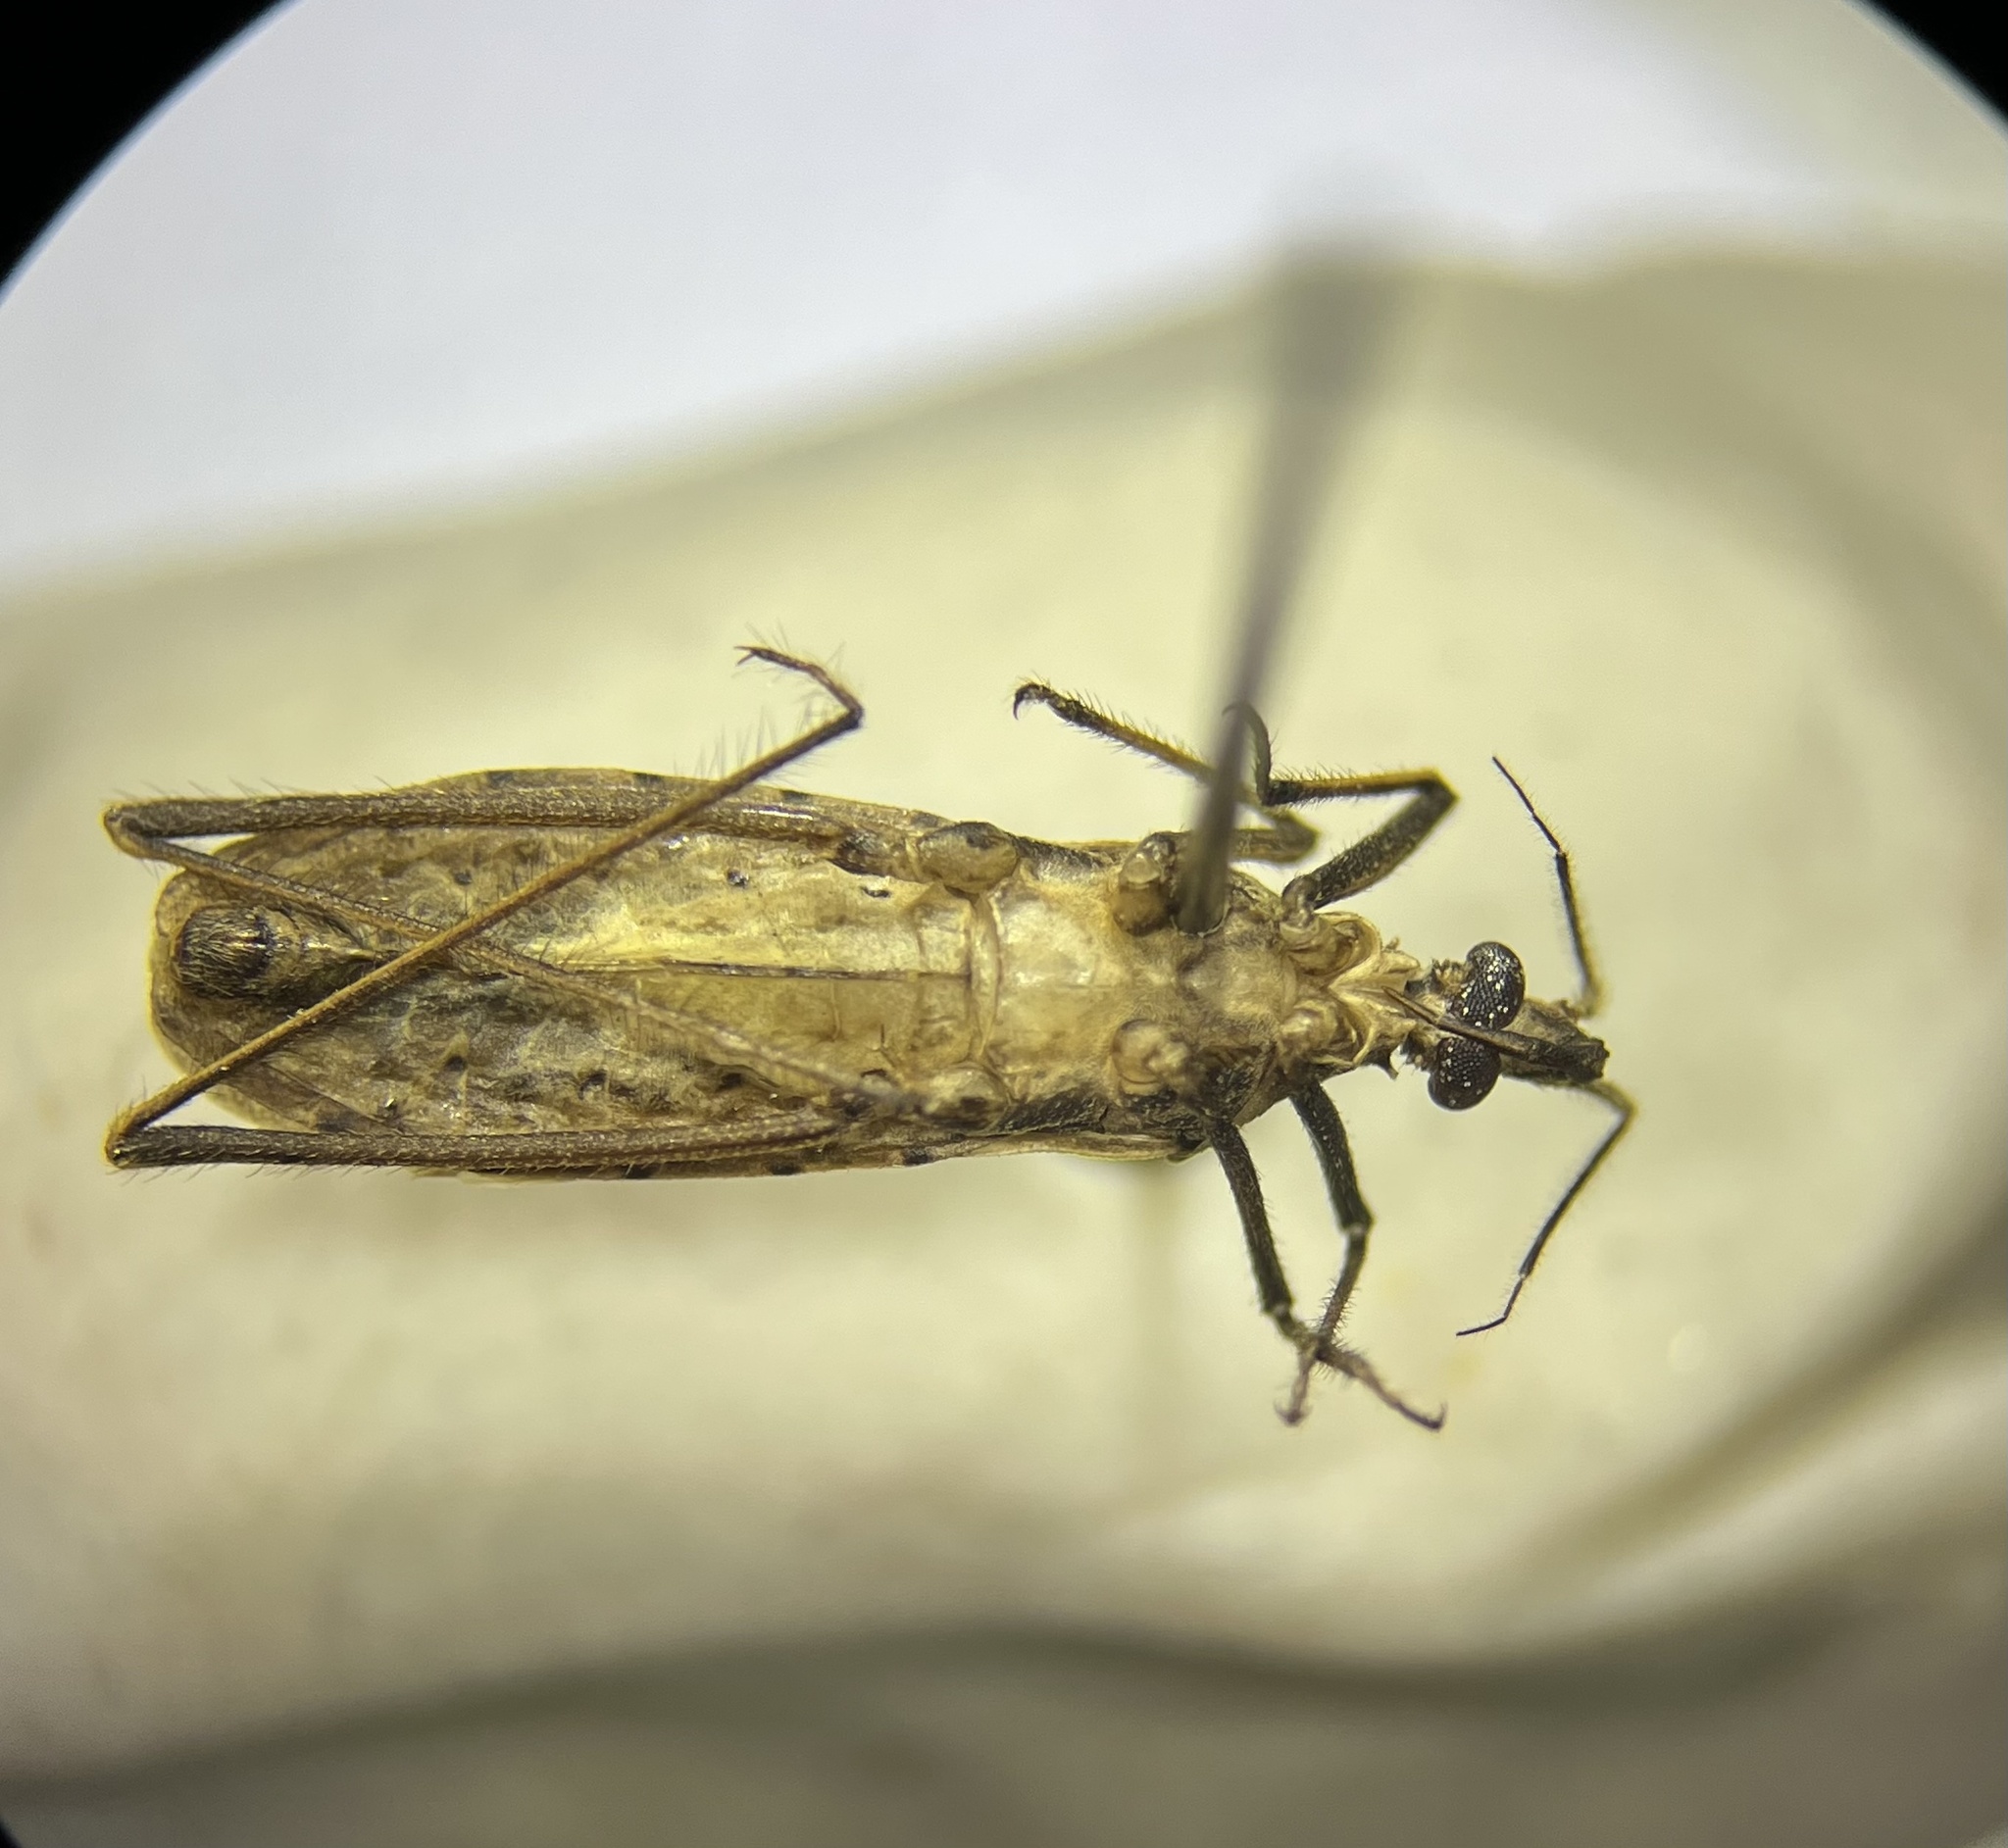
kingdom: Animalia
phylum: Arthropoda
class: Insecta
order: Hemiptera
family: Reduviidae
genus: Stenopoda
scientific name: Stenopoda spinulosa
